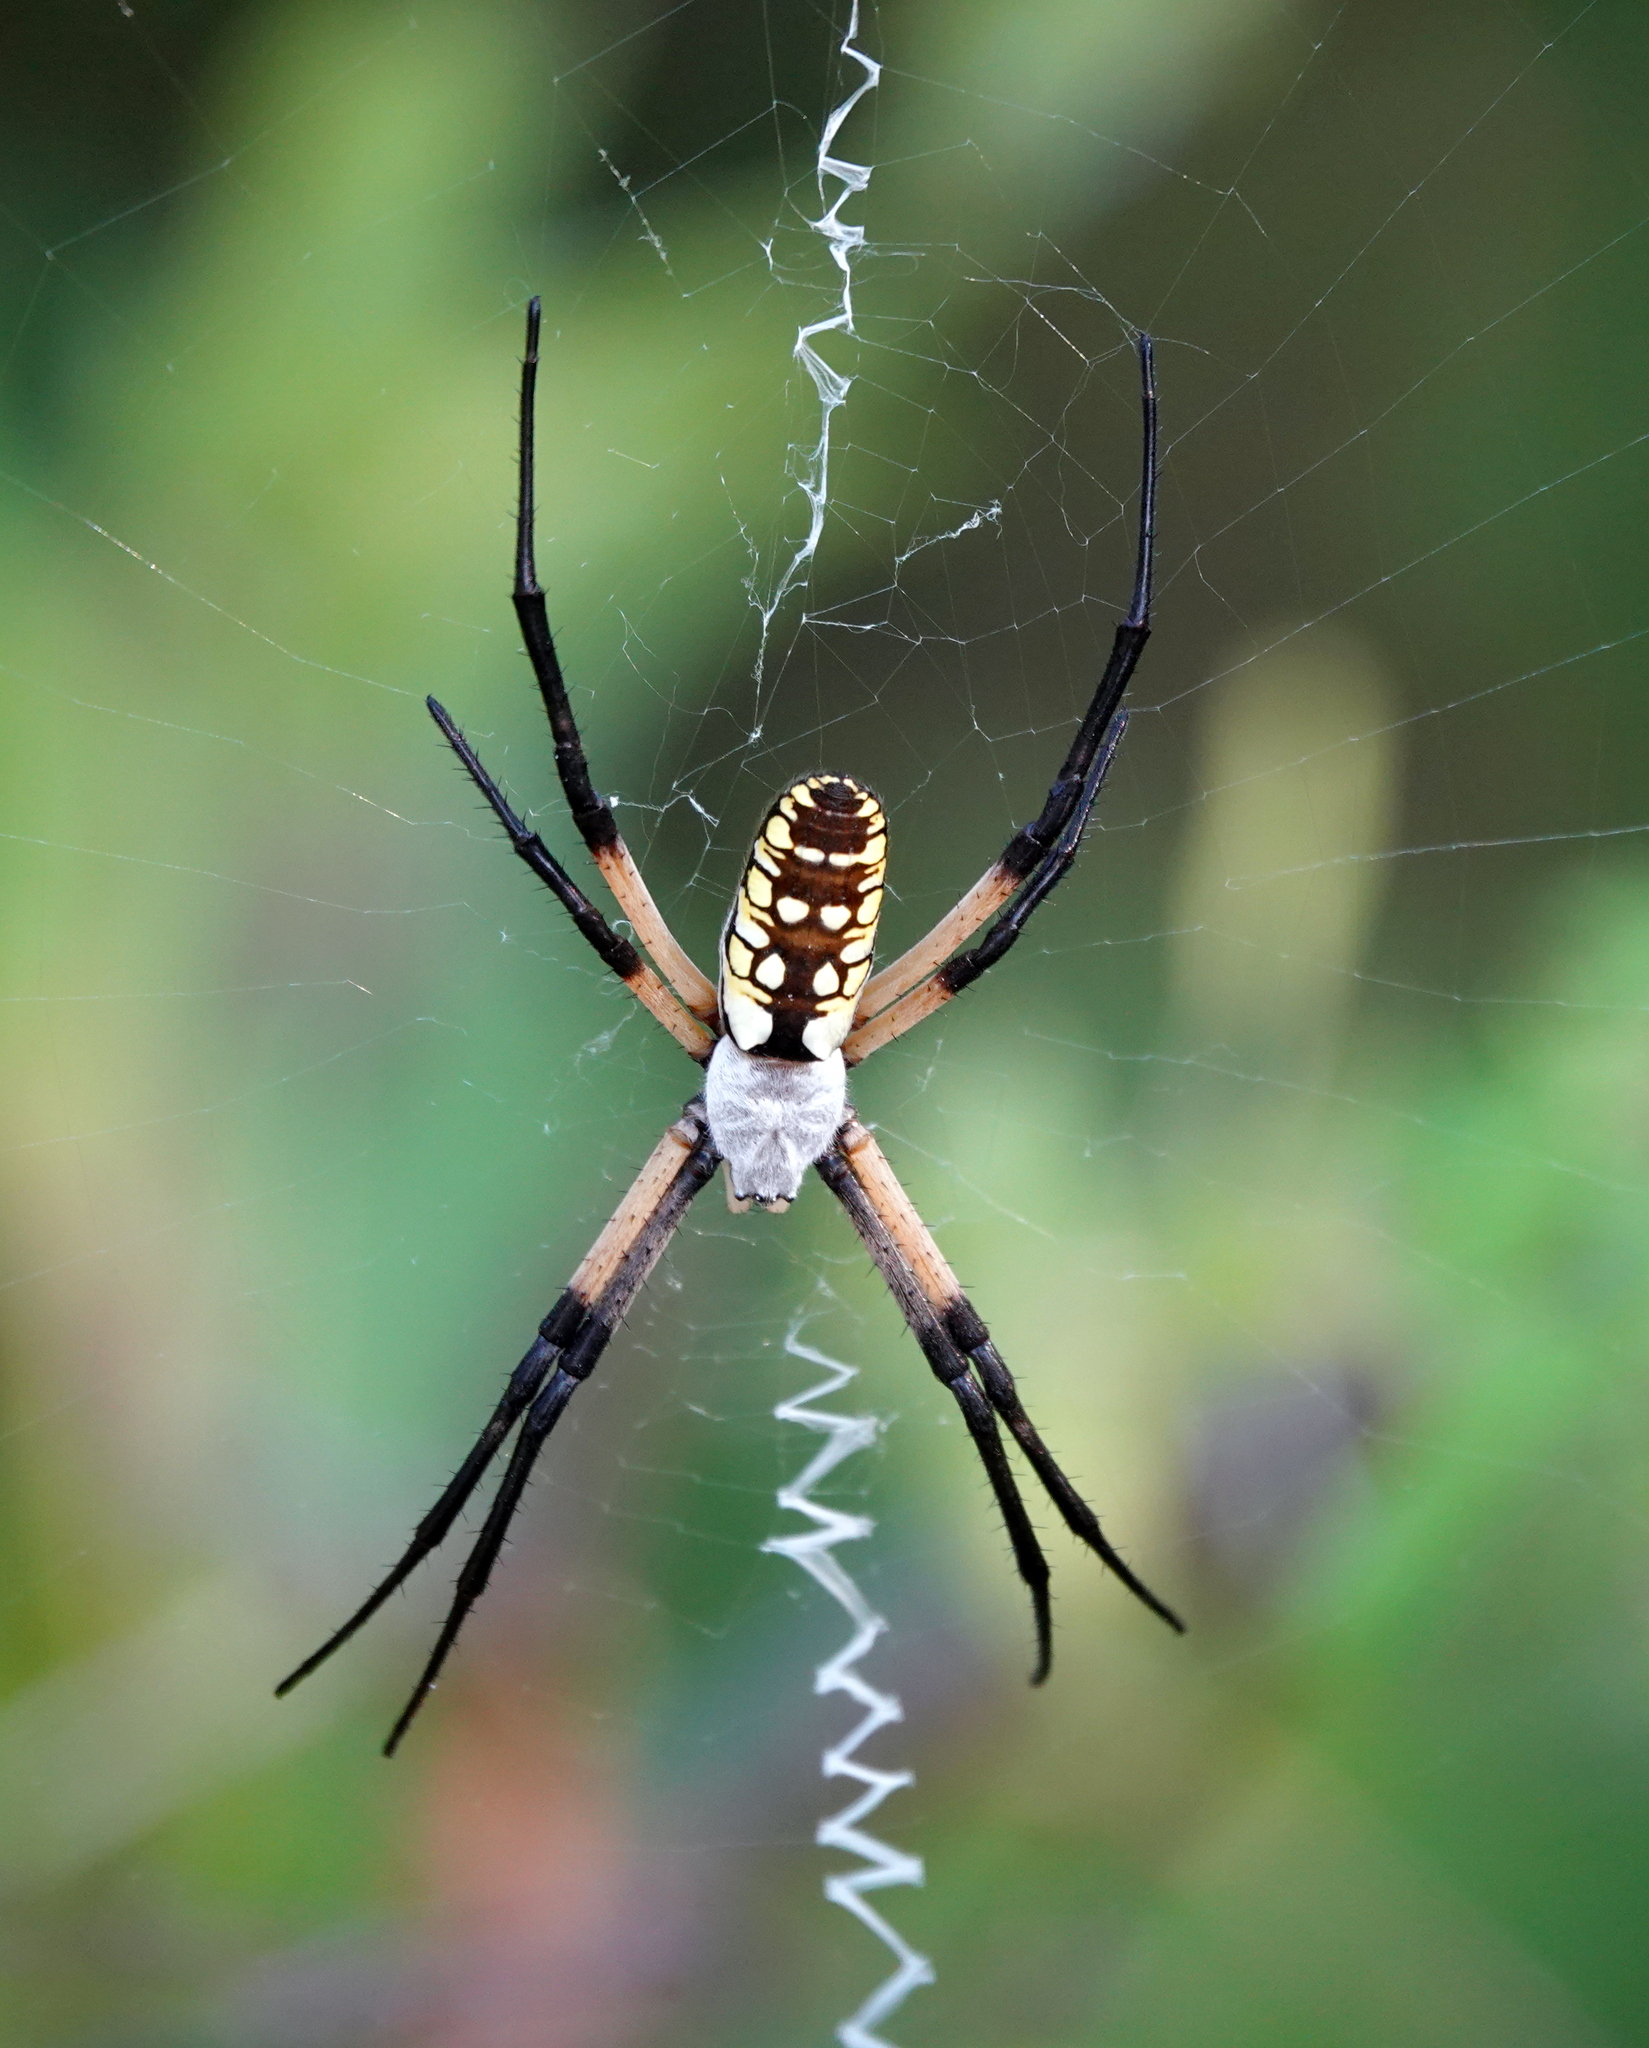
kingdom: Animalia
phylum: Arthropoda
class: Arachnida
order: Araneae
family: Araneidae
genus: Argiope
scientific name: Argiope aurantia
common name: Orb weavers
